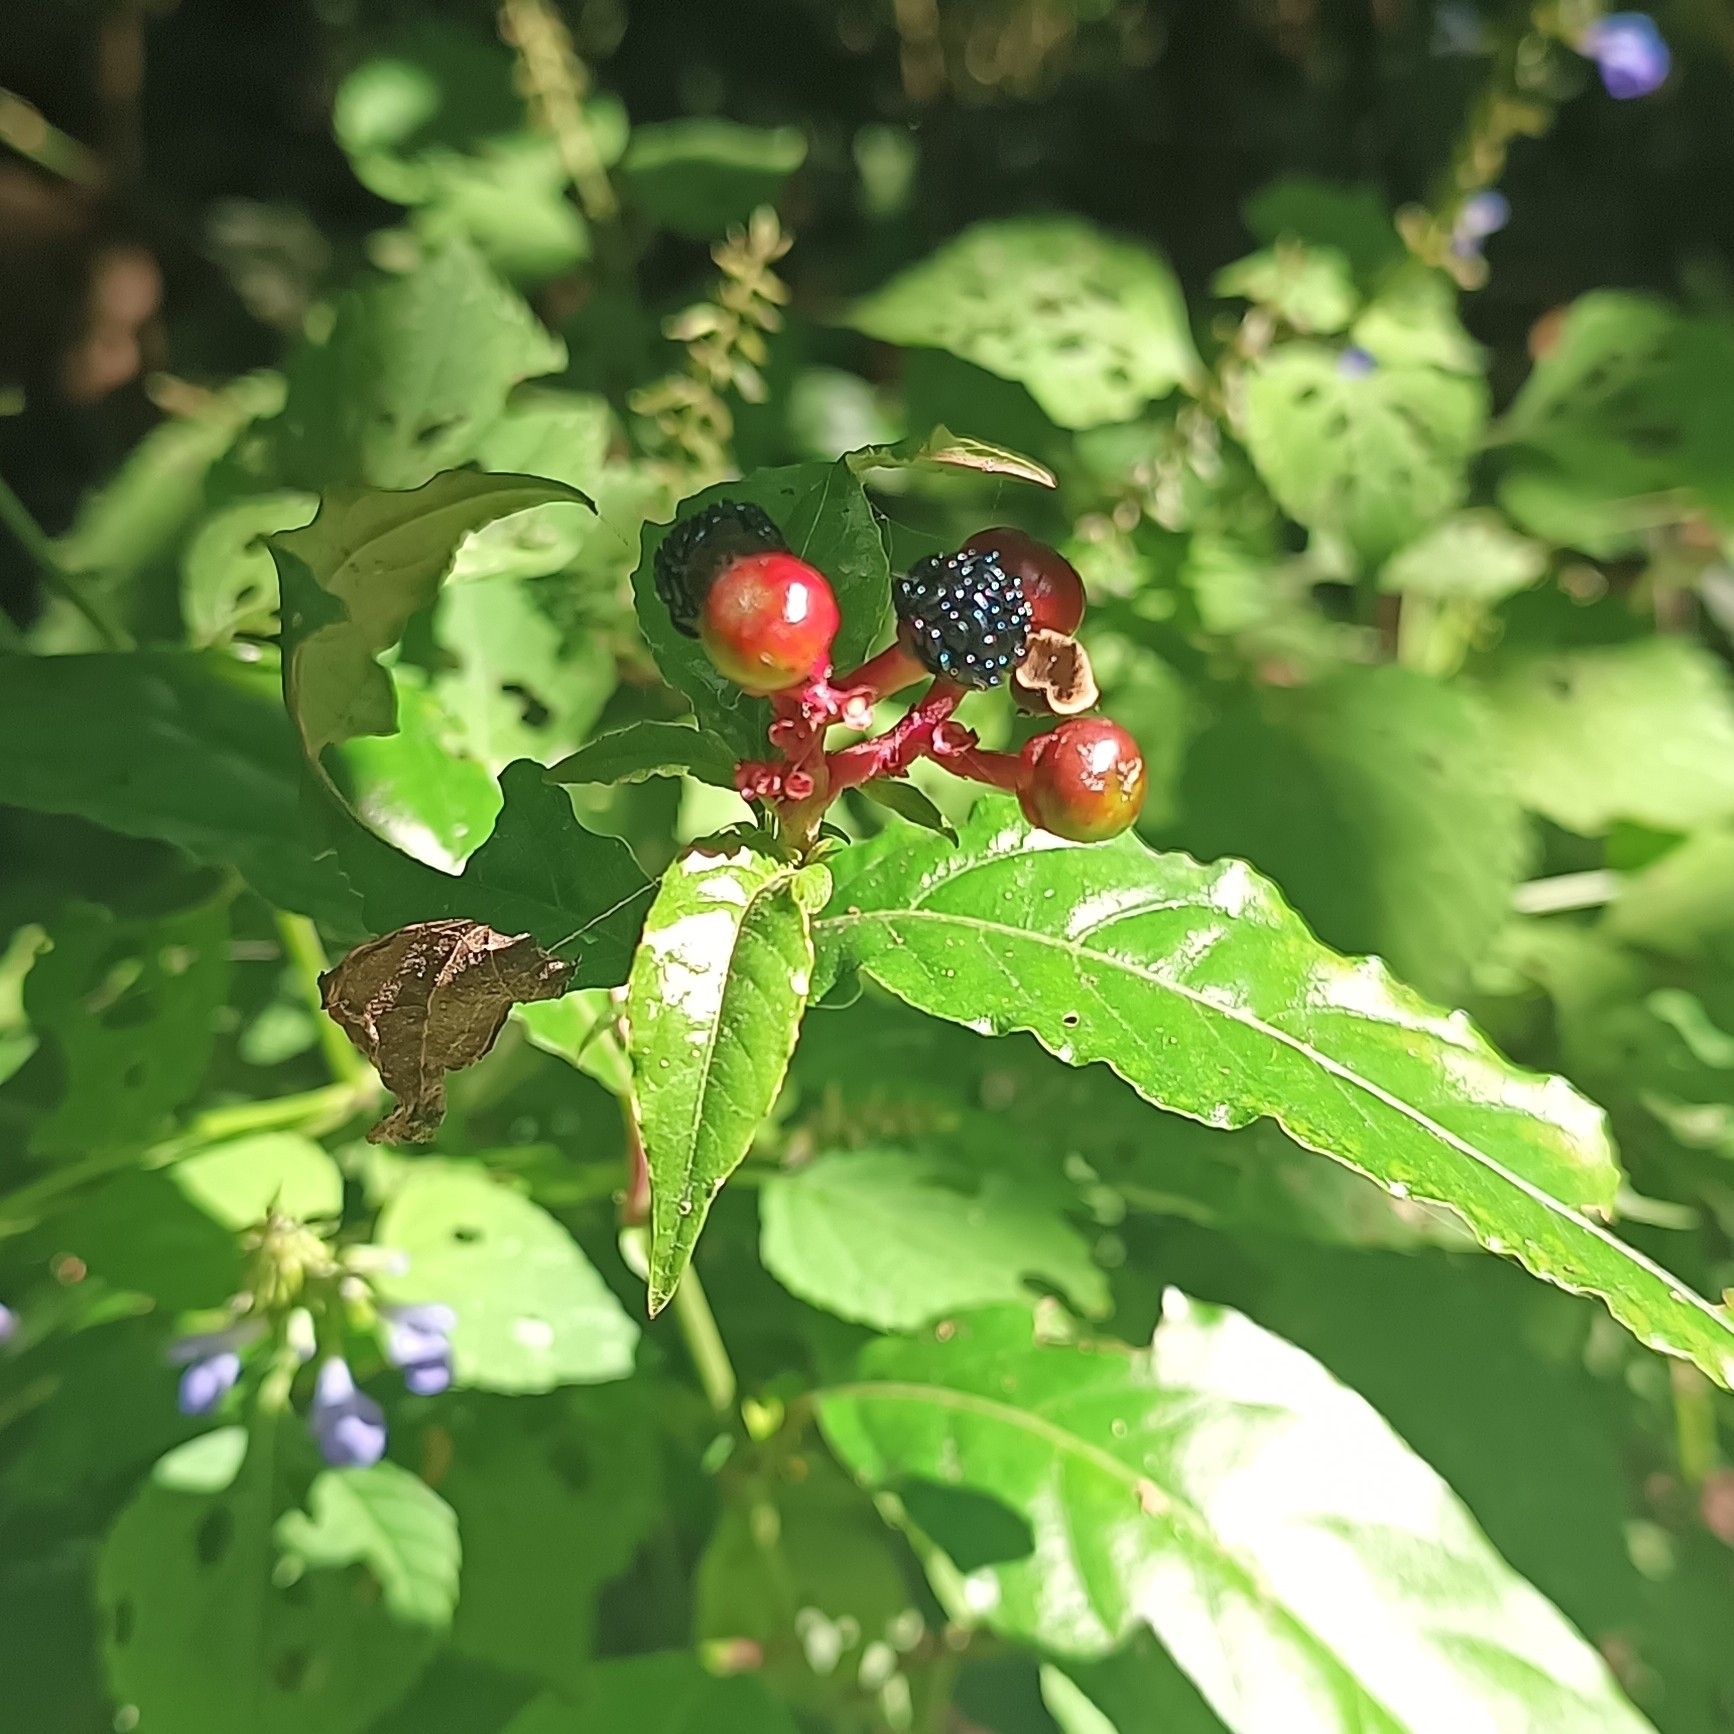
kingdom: Plantae
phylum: Tracheophyta
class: Magnoliopsida
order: Caryophyllales
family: Phytolaccaceae
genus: Rivina
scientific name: Rivina humilis
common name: Rougeplant
